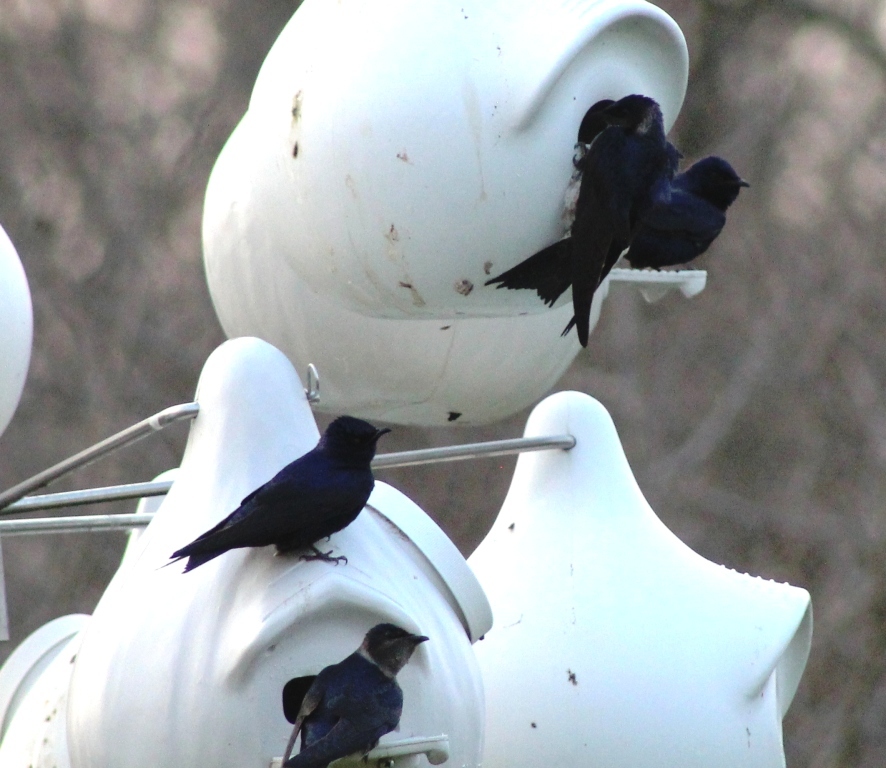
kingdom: Animalia
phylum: Chordata
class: Aves
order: Passeriformes
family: Hirundinidae
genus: Progne
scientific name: Progne subis
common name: Purple martin
